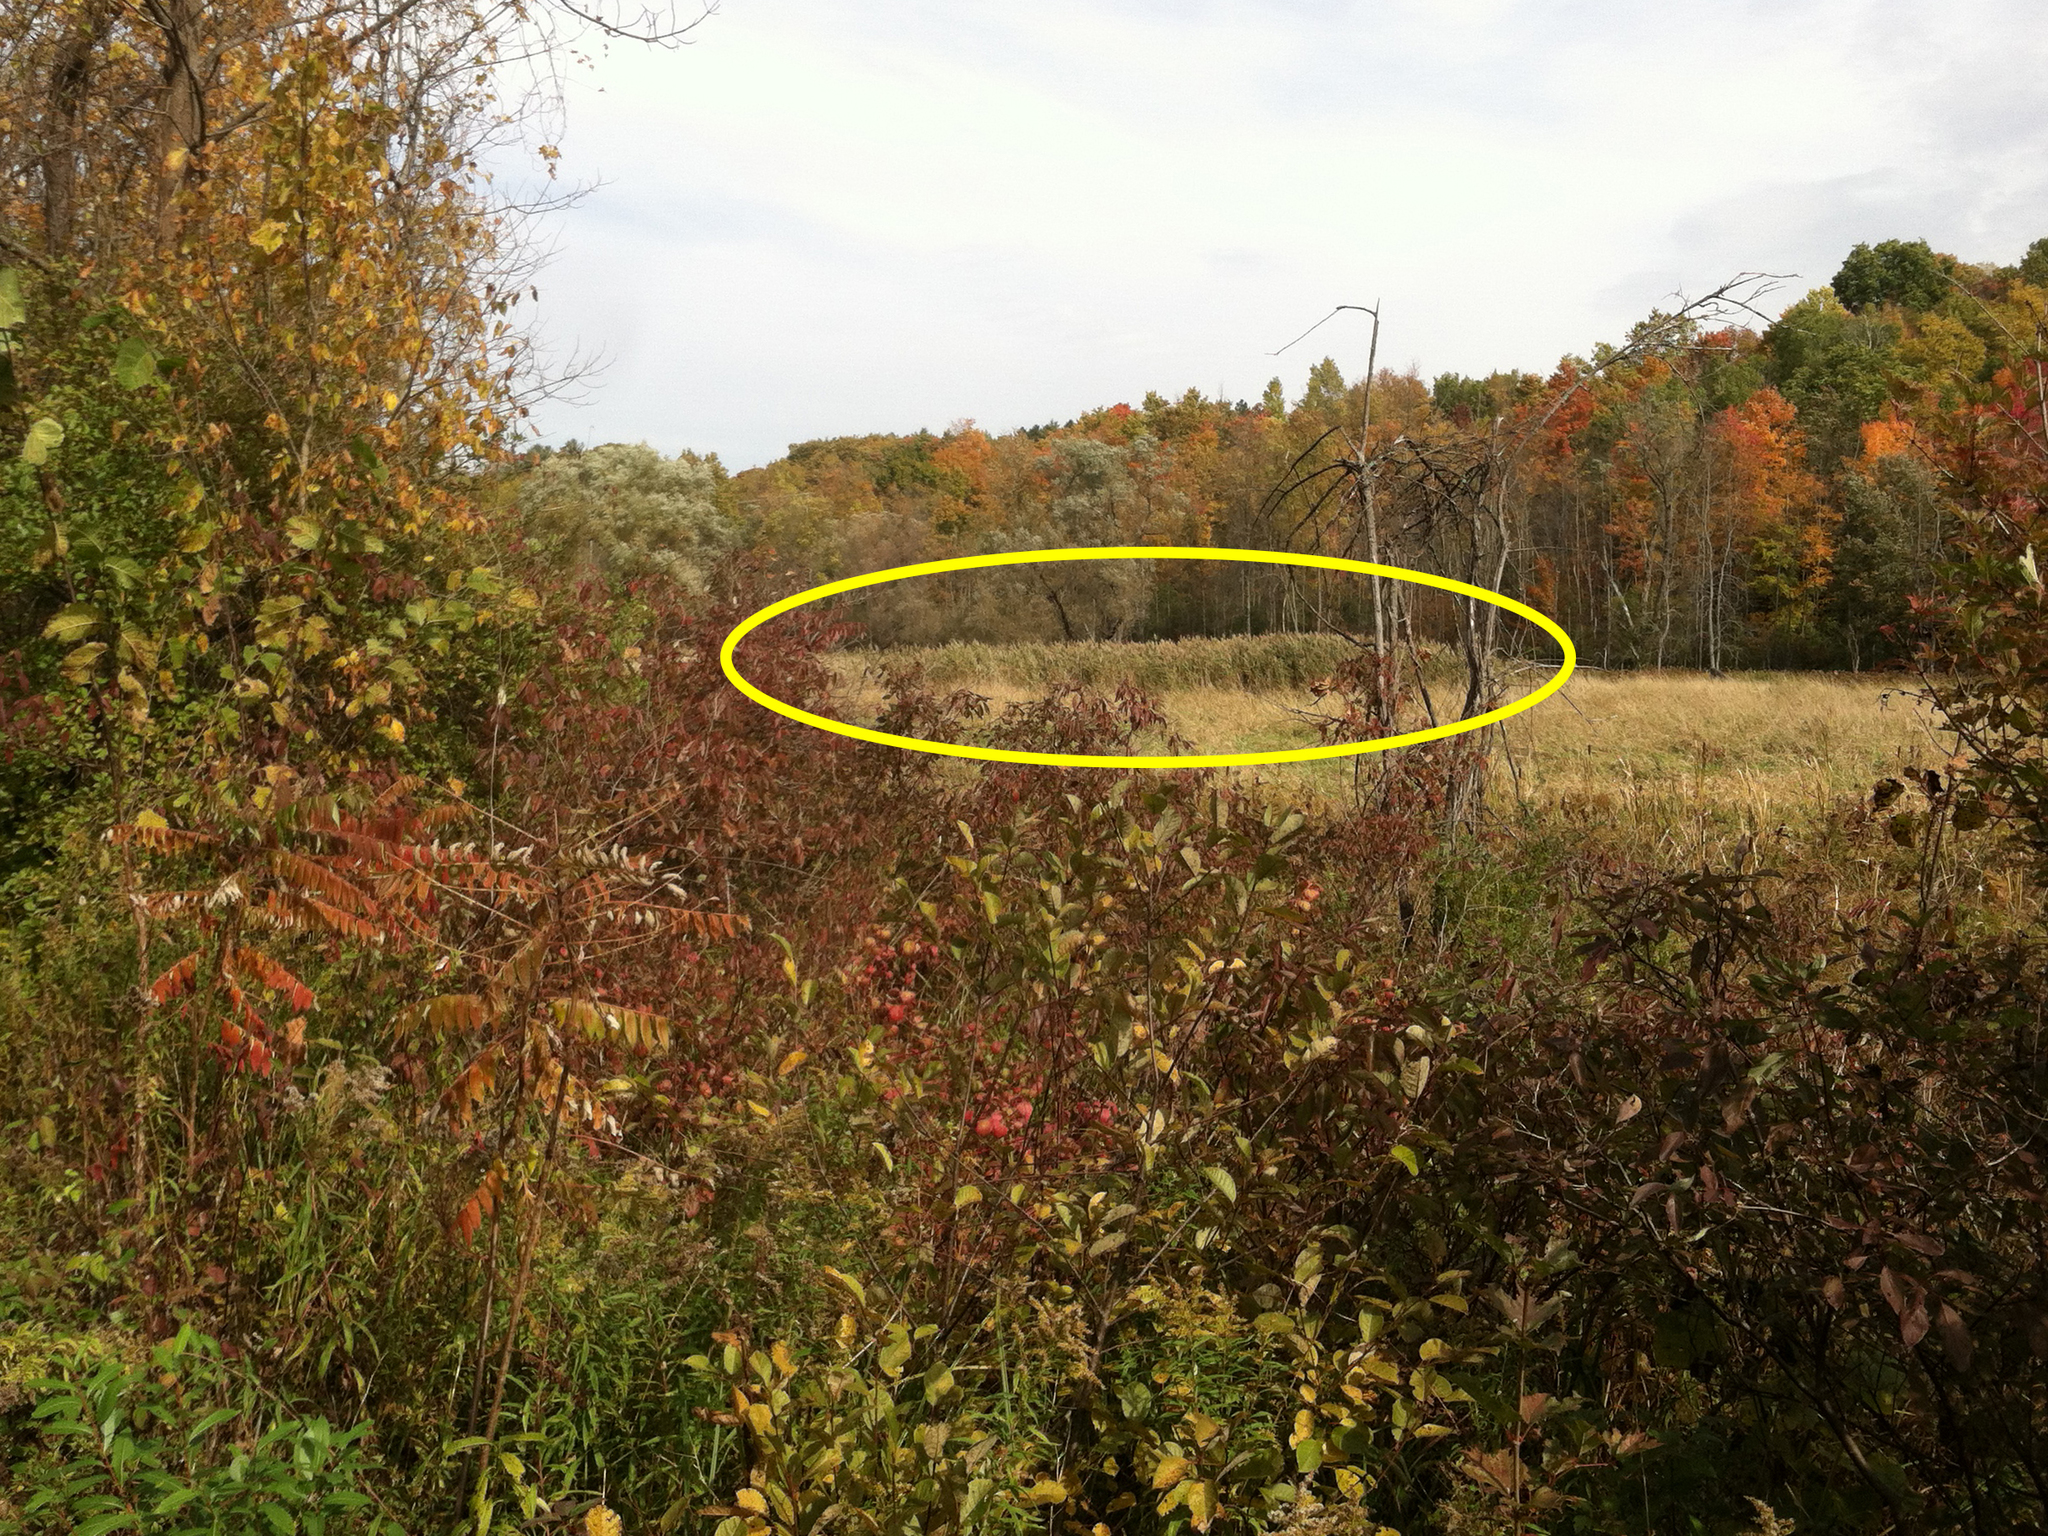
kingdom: Plantae
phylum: Tracheophyta
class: Liliopsida
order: Poales
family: Poaceae
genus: Phragmites
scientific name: Phragmites australis
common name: Common reed
